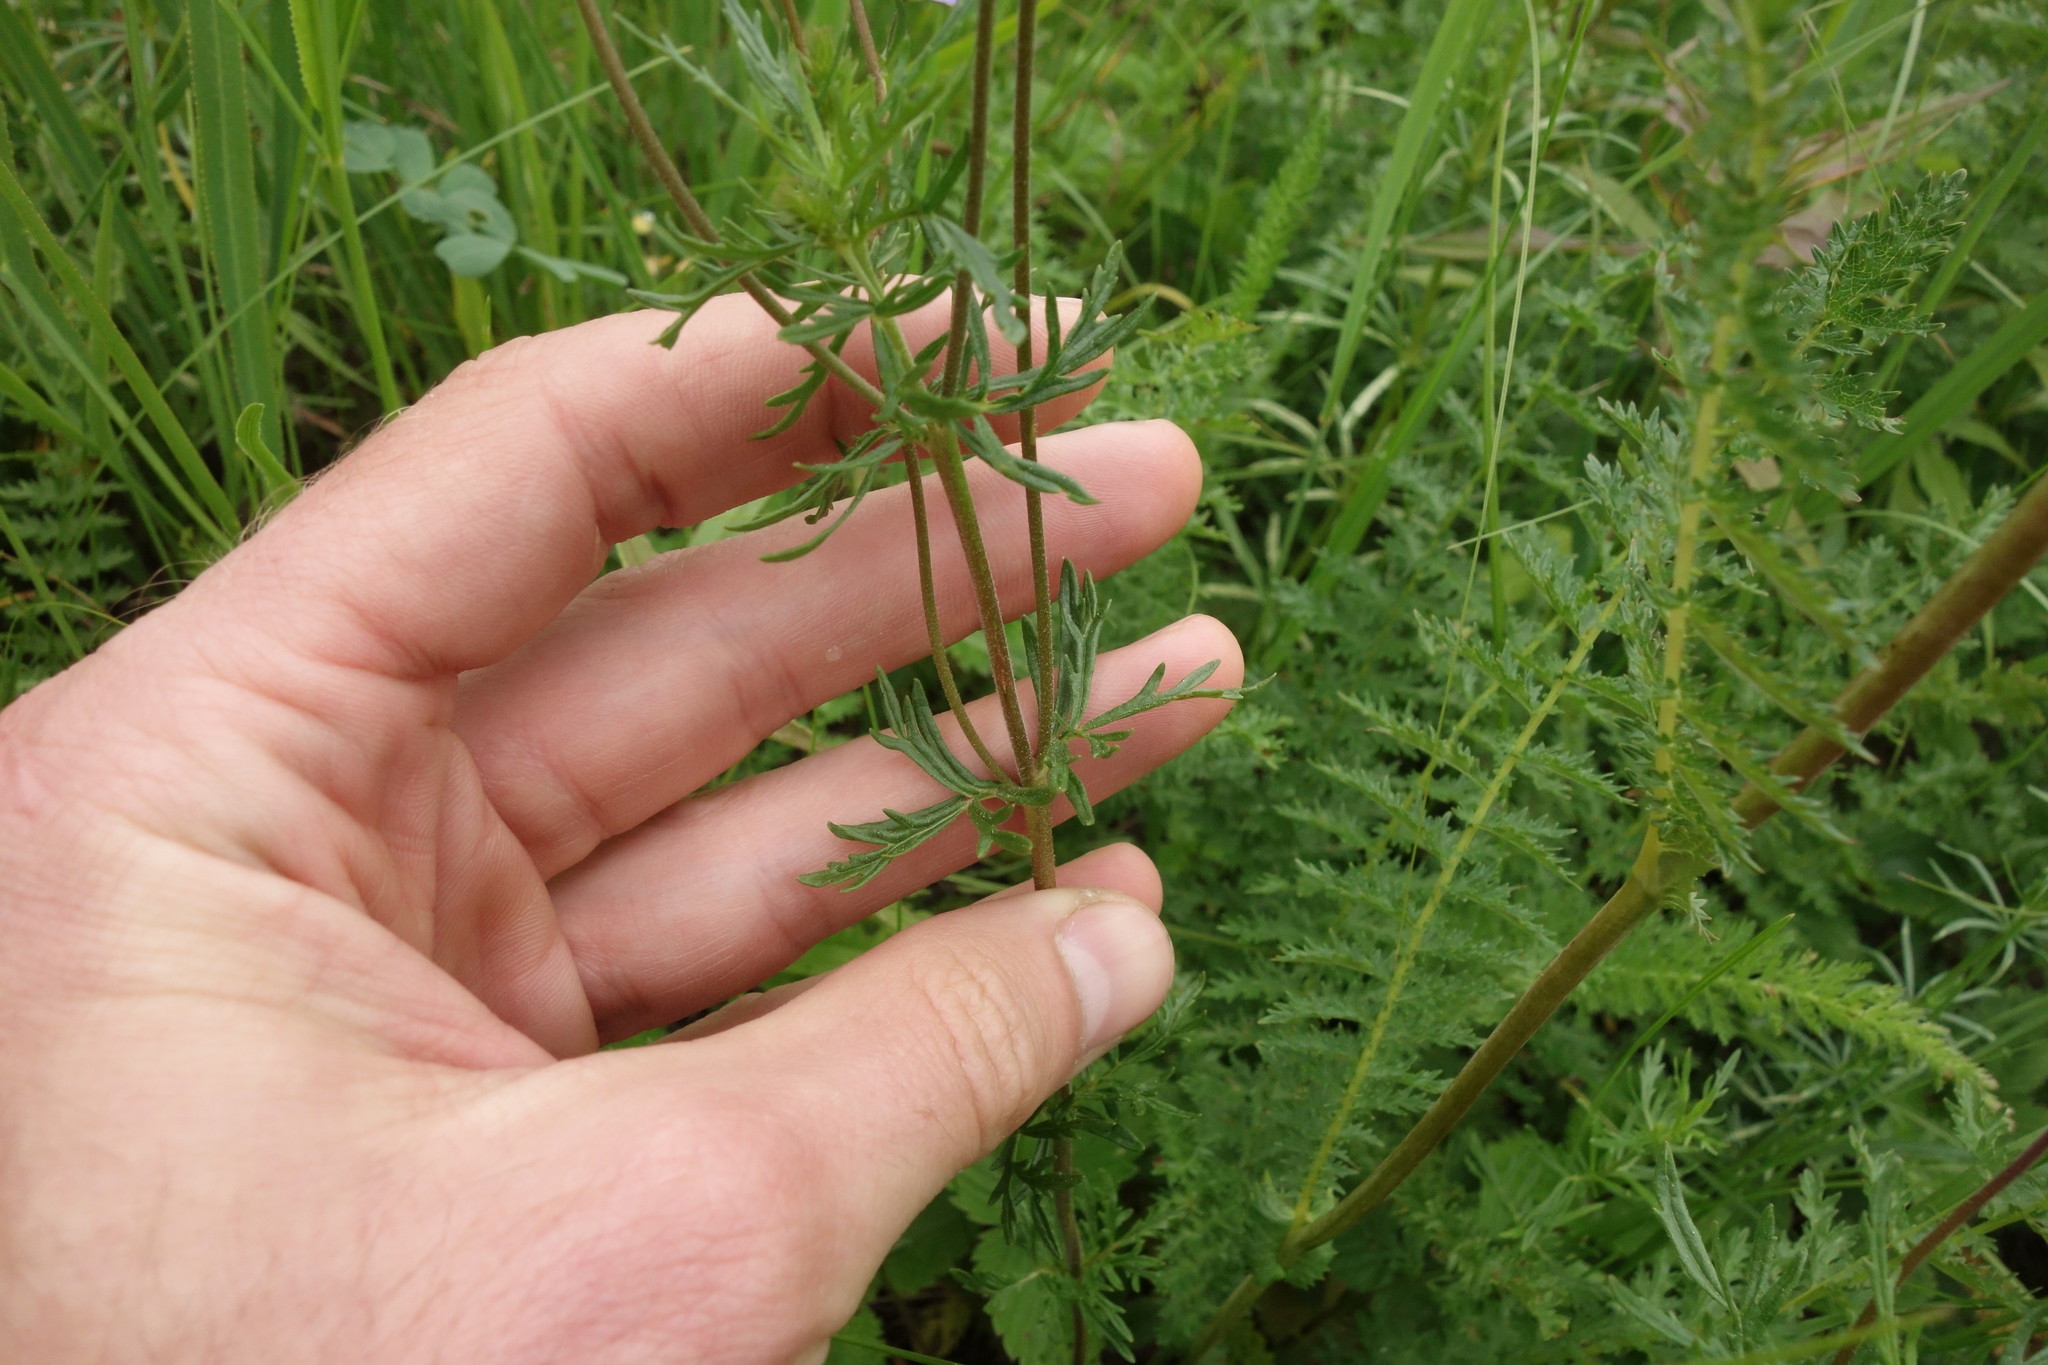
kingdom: Plantae
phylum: Tracheophyta
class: Magnoliopsida
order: Lamiales
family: Plantaginaceae
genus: Veronica
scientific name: Veronica austriaca
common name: Large speedwell
